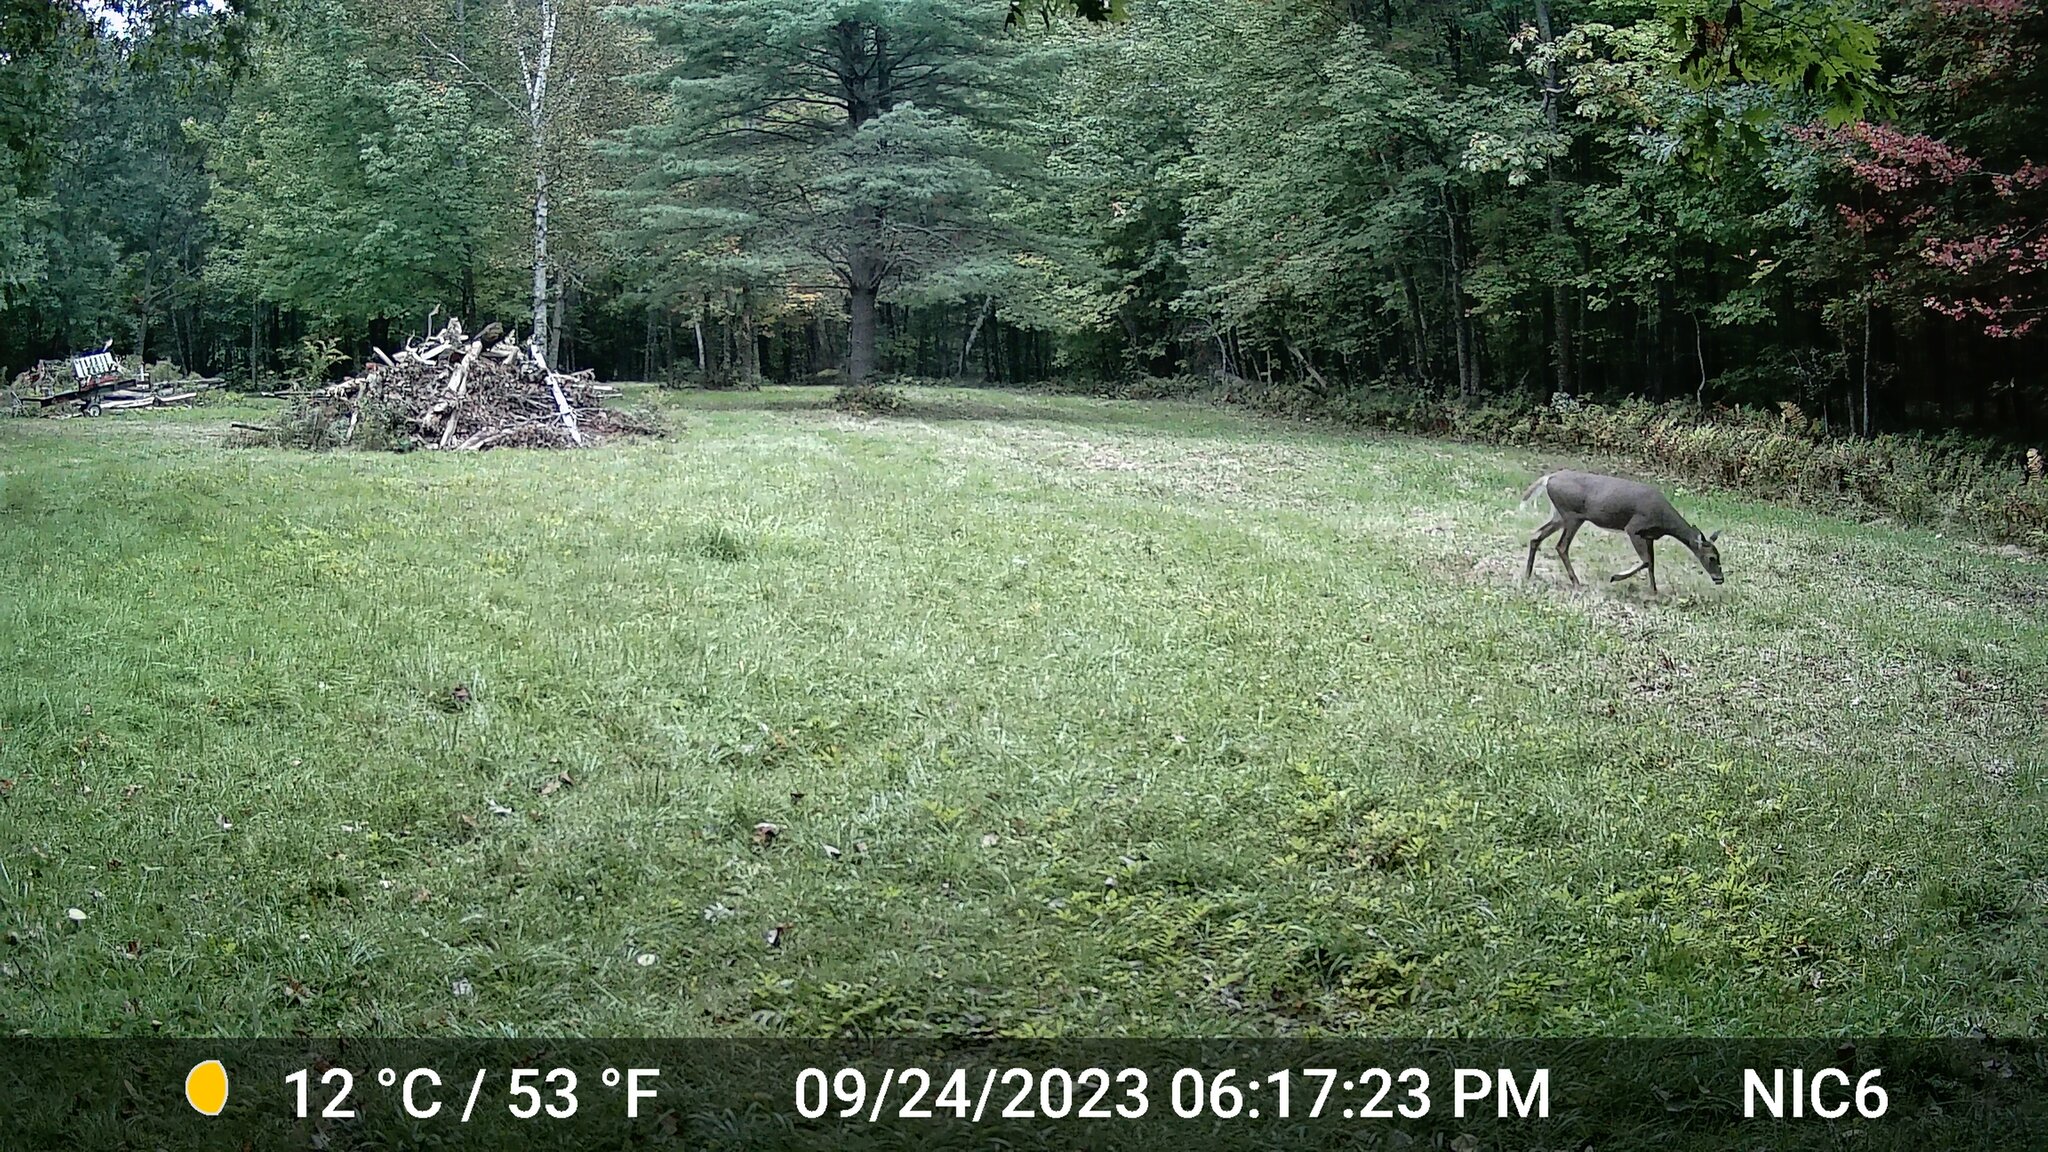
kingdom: Animalia
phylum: Chordata
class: Mammalia
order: Artiodactyla
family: Cervidae
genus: Odocoileus
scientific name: Odocoileus virginianus
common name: White-tailed deer
